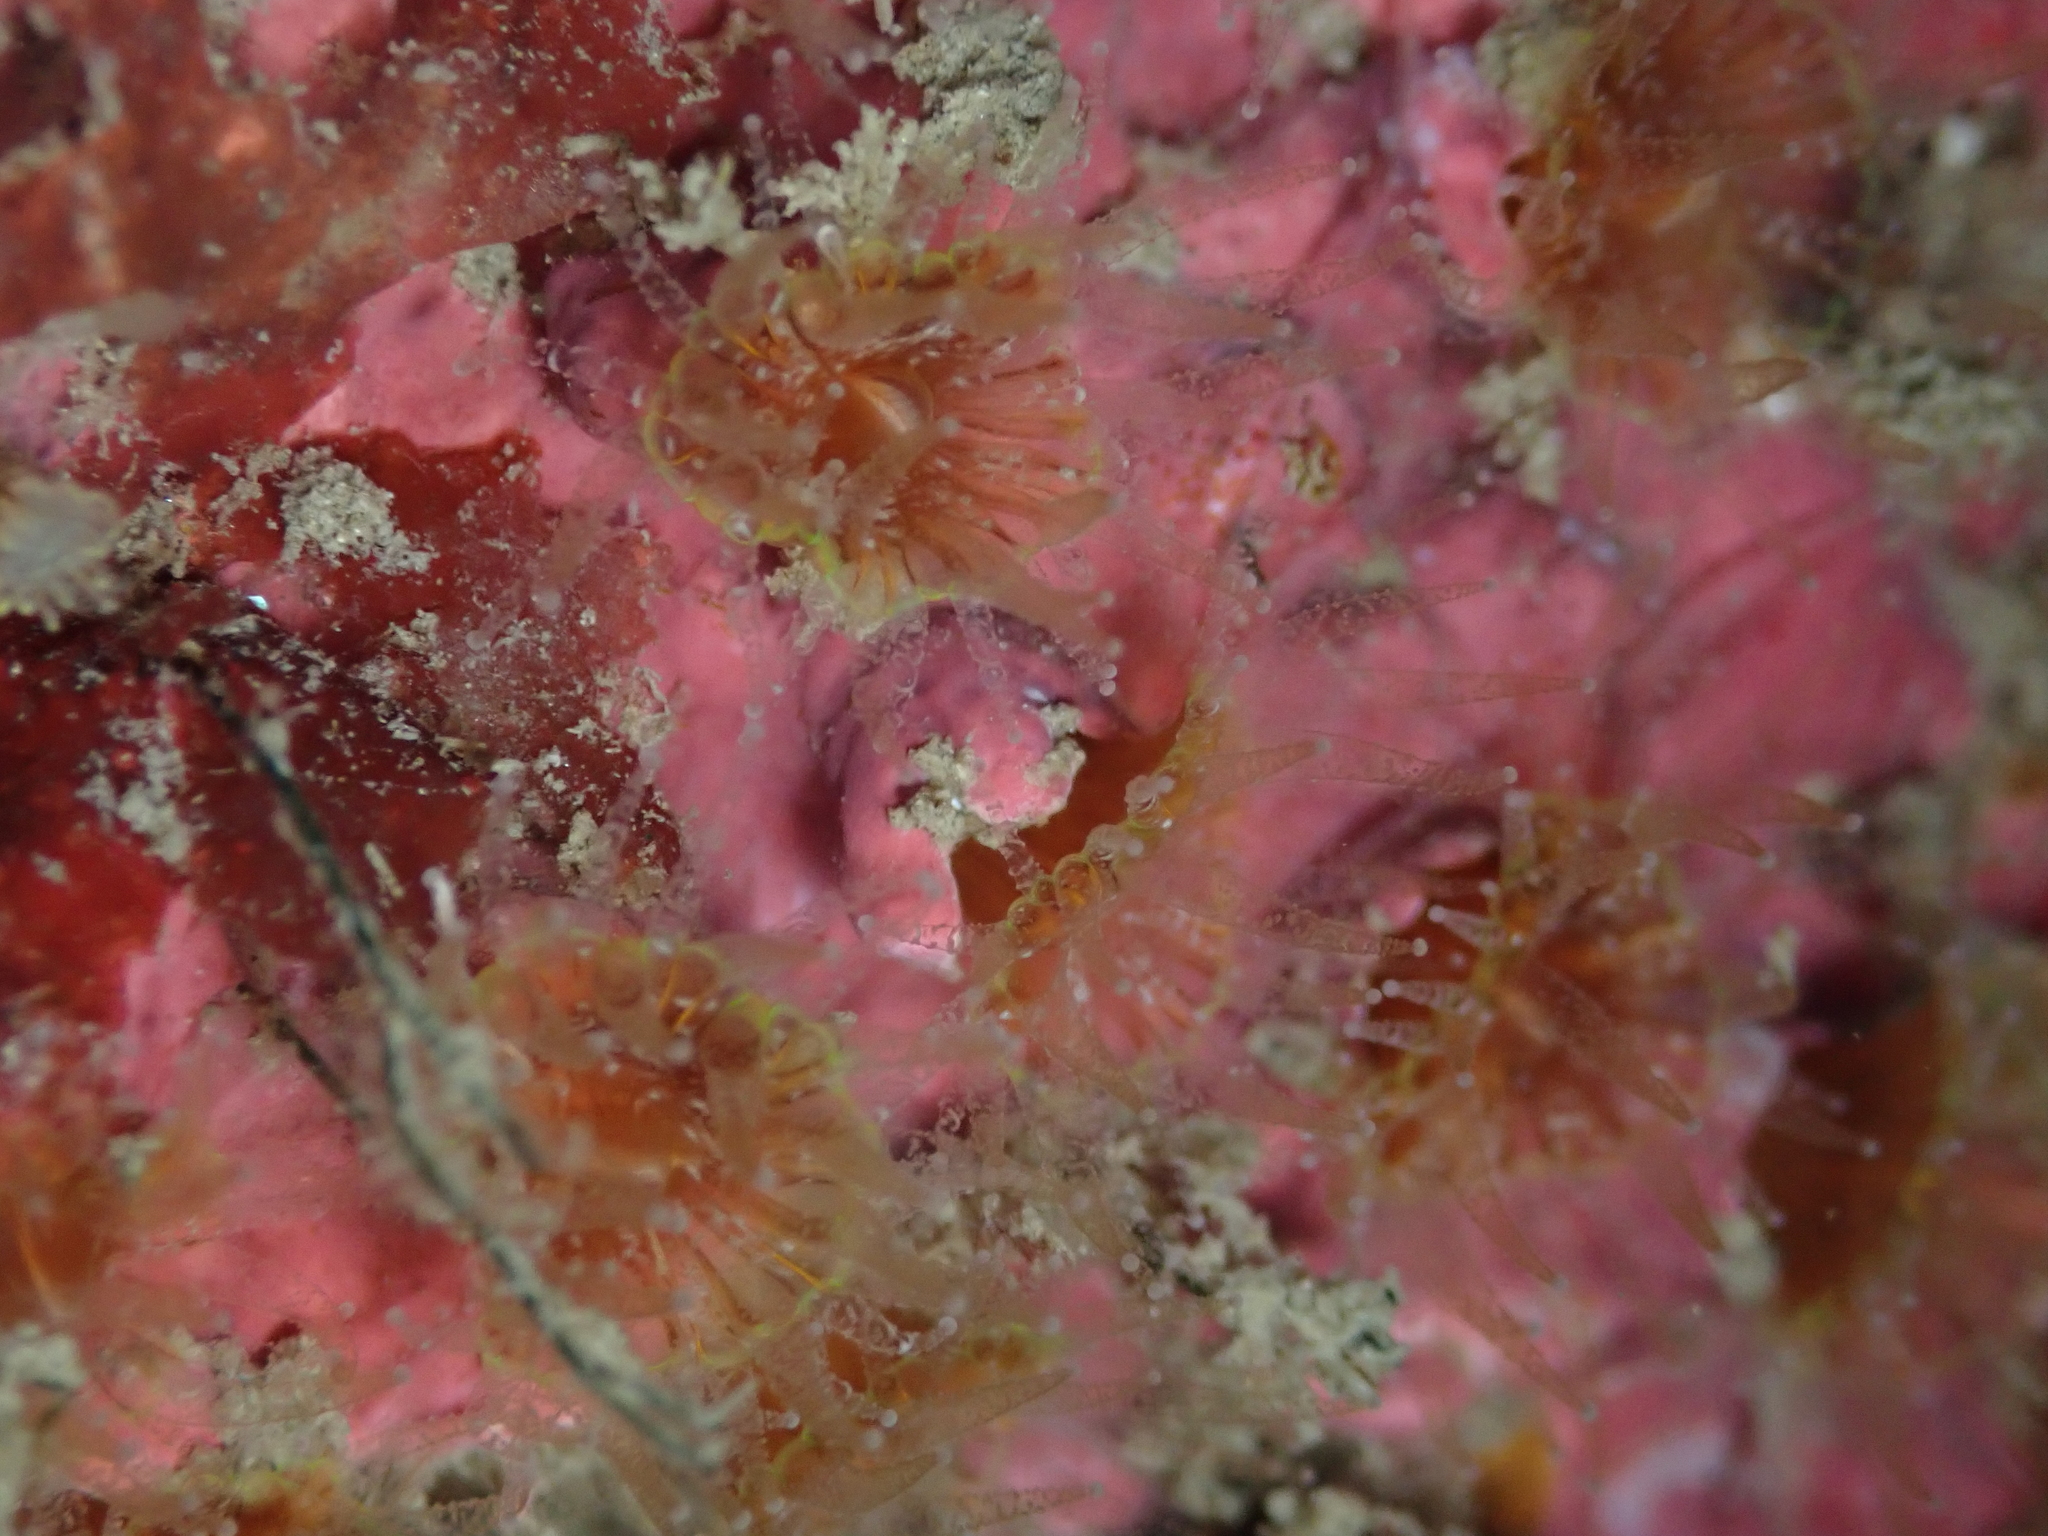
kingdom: Animalia
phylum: Cnidaria
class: Anthozoa
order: Scleractinia
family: Rhizangiidae
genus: Culicia
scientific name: Culicia rubeola
